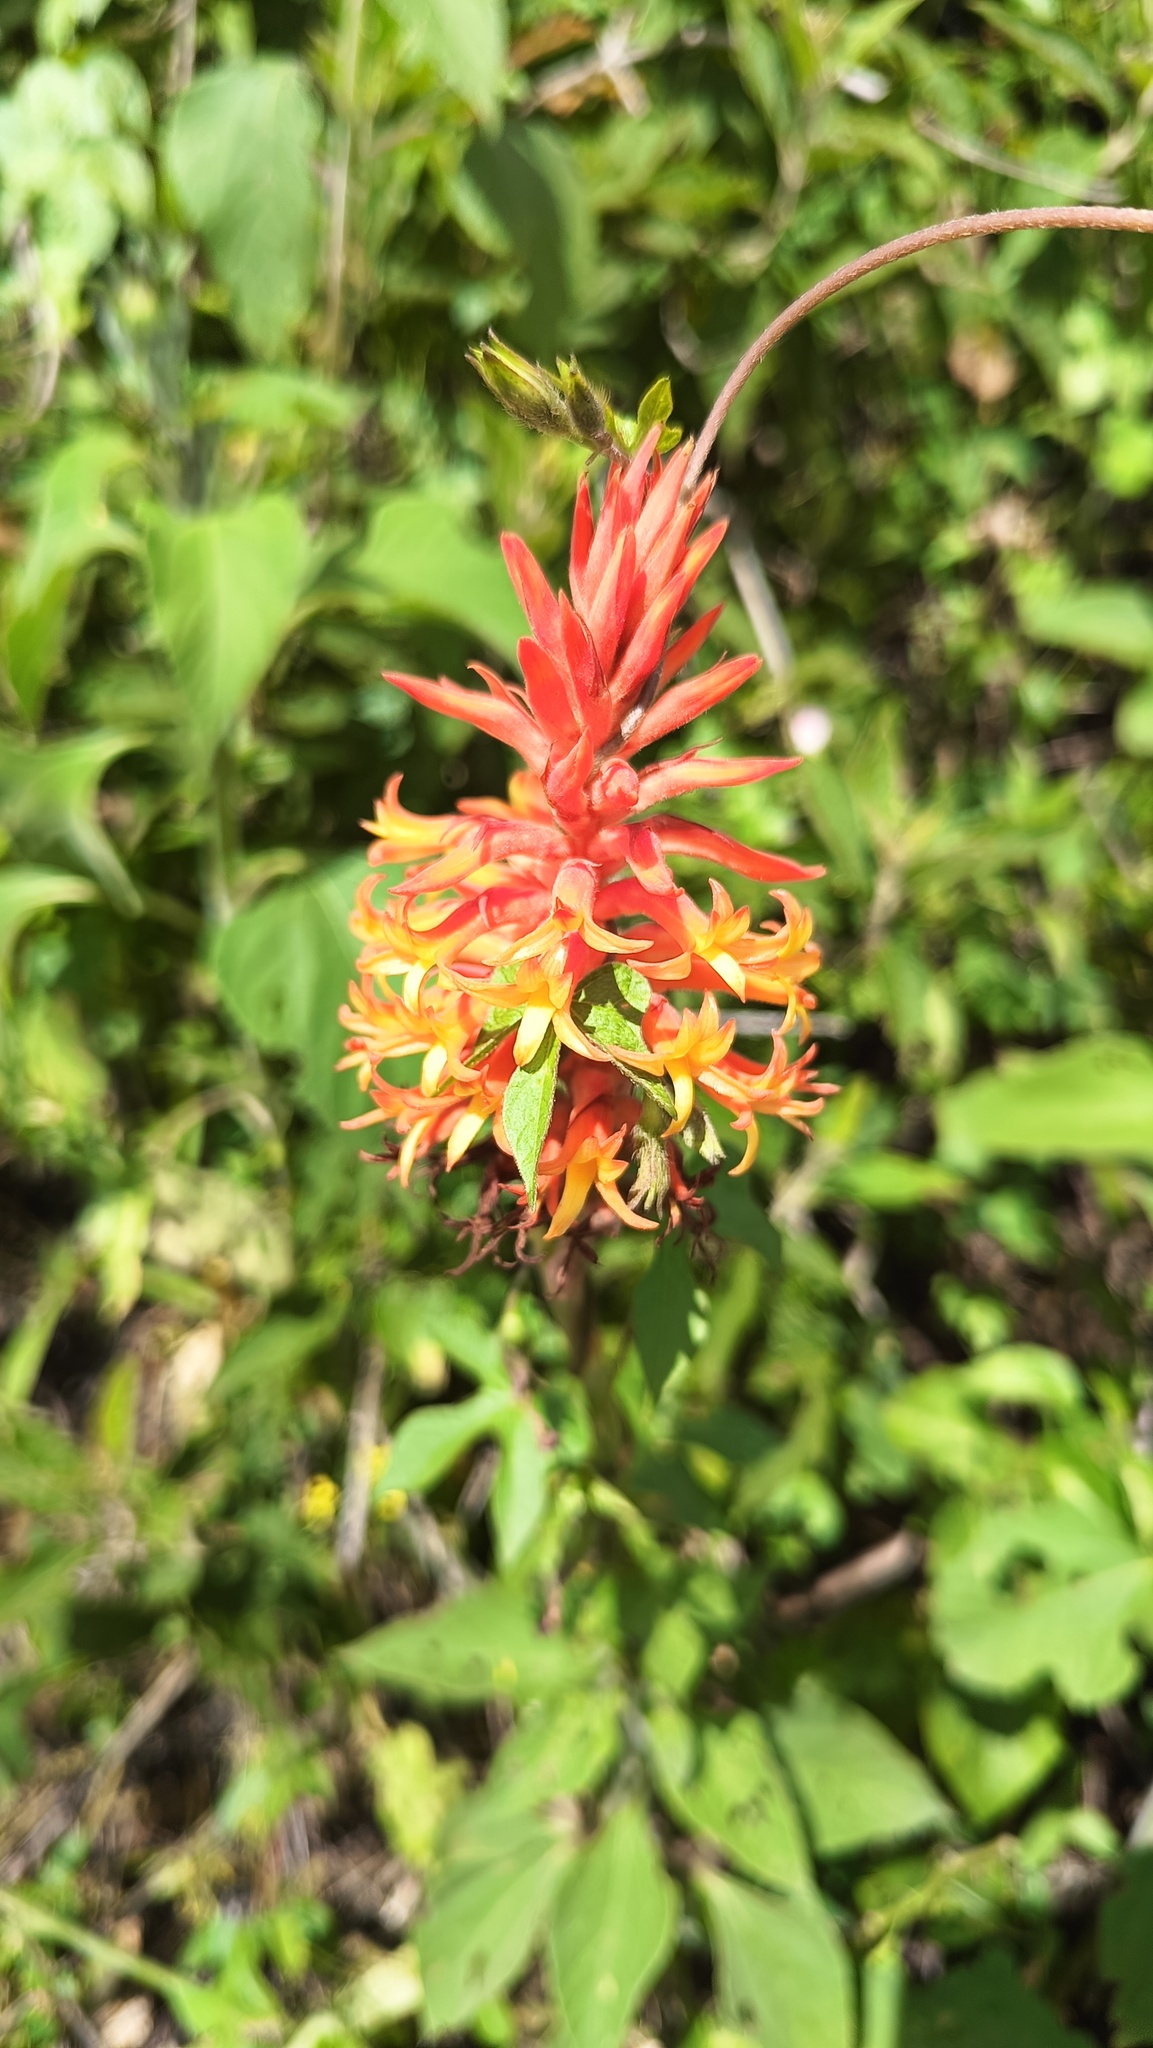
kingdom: Plantae
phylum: Tracheophyta
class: Liliopsida
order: Asparagales
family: Orchidaceae
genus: Dichromanthus
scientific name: Dichromanthus cinnabarinus
